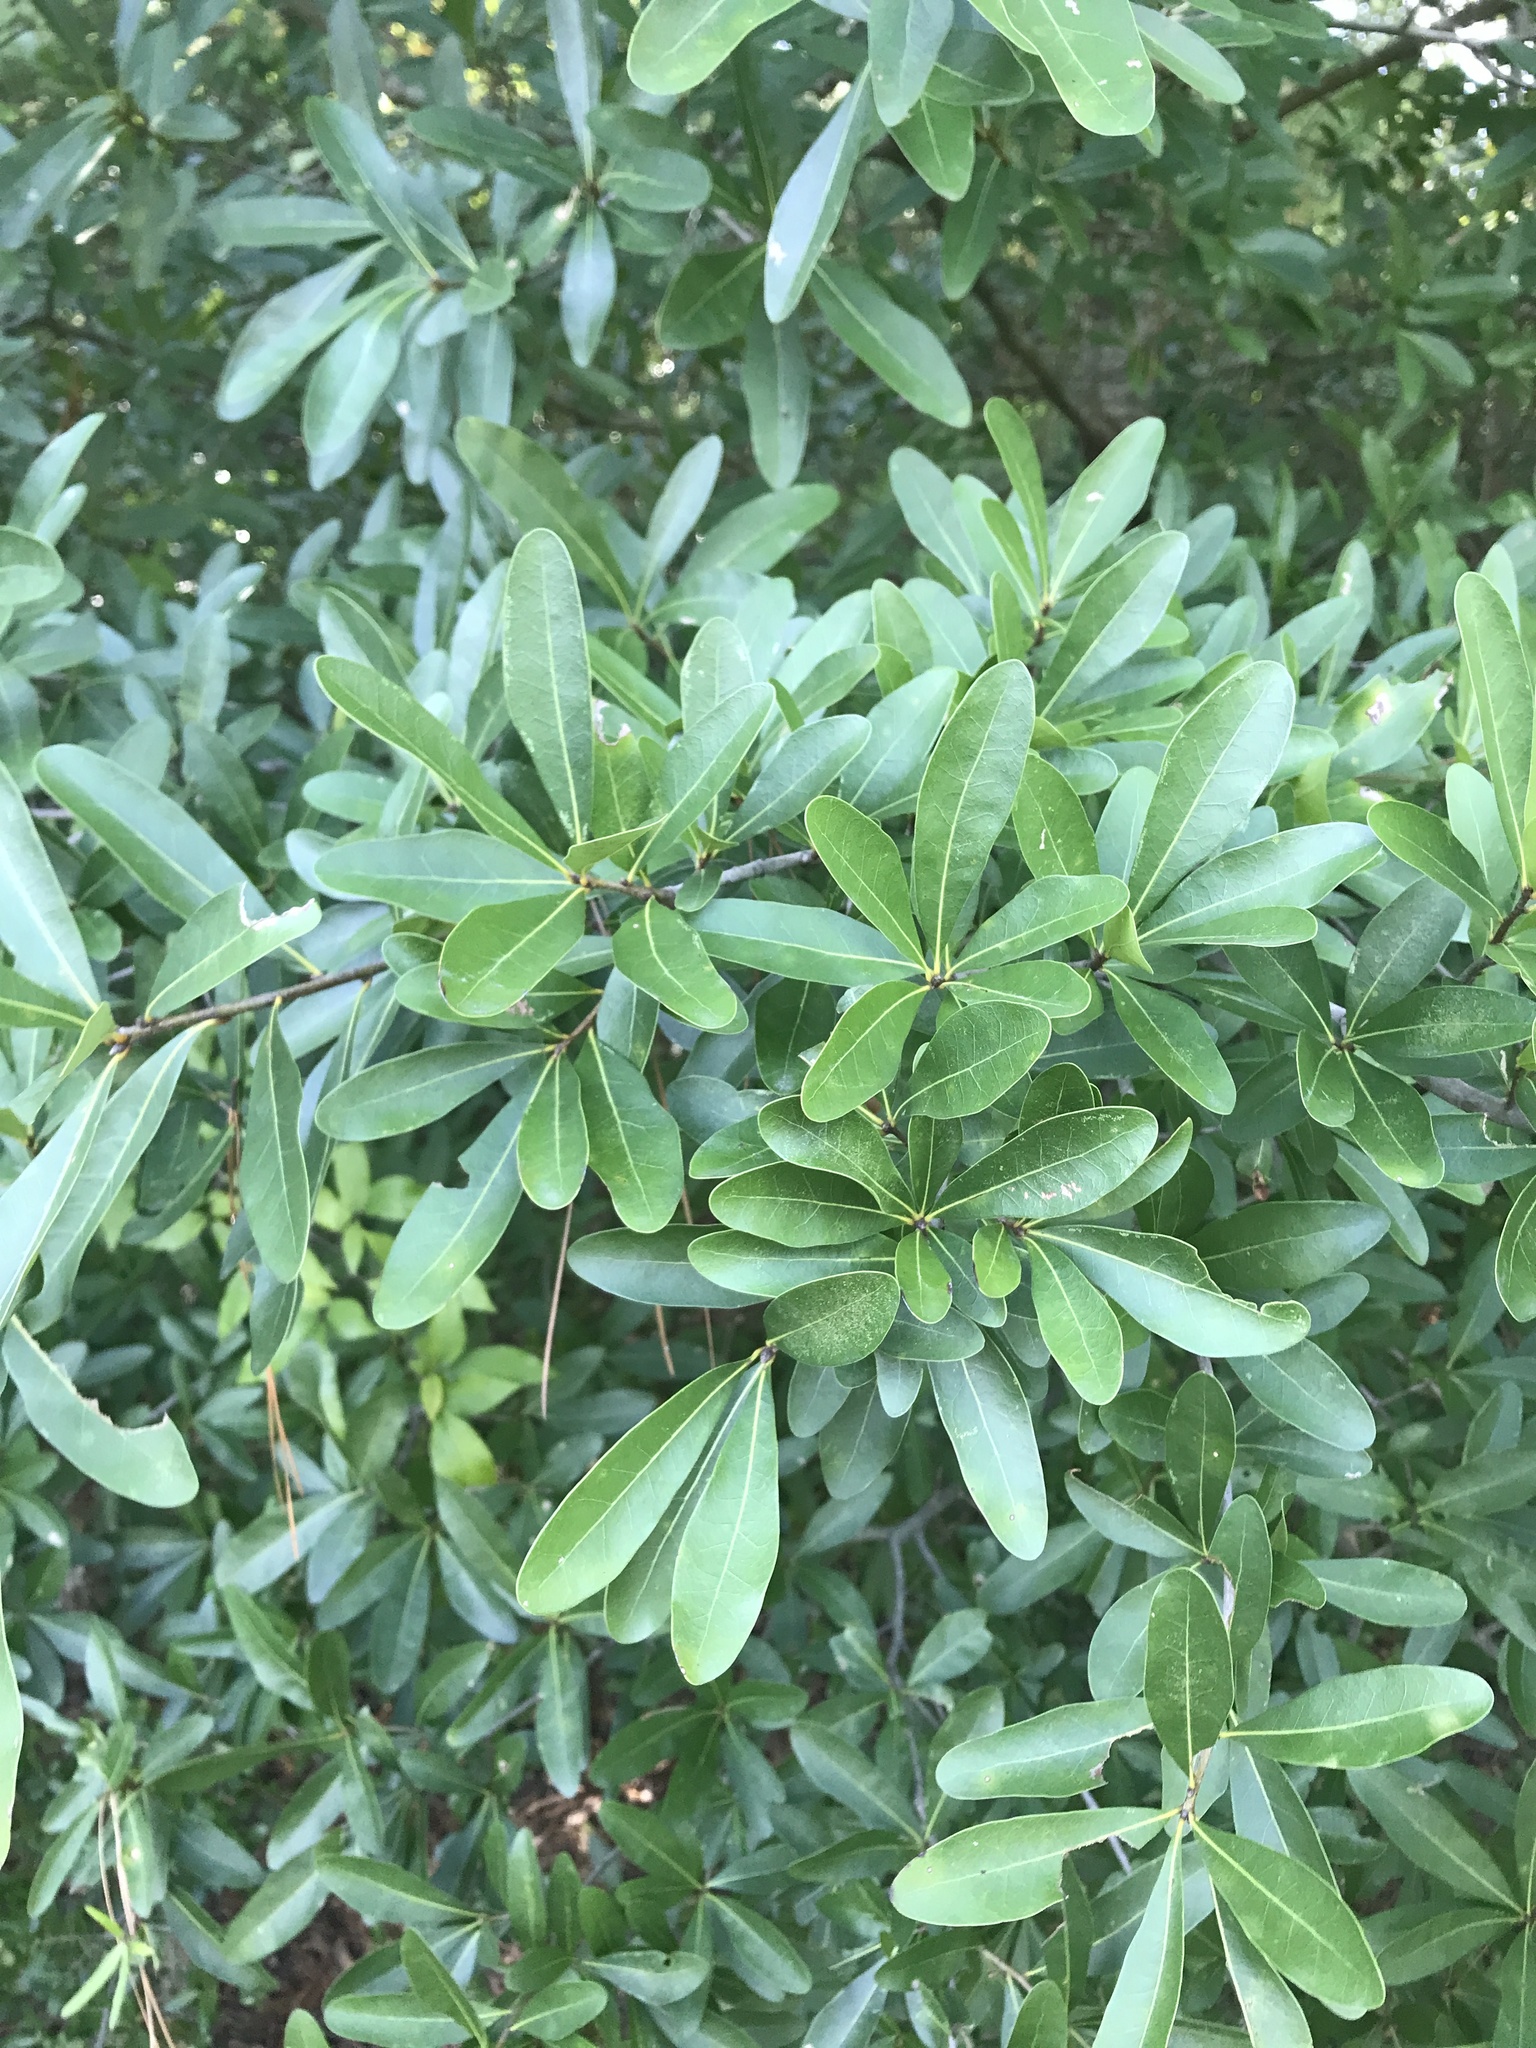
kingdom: Plantae
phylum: Tracheophyta
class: Magnoliopsida
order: Fagales
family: Fagaceae
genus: Quercus
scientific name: Quercus laurifolia
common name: Swamp laurel oak
